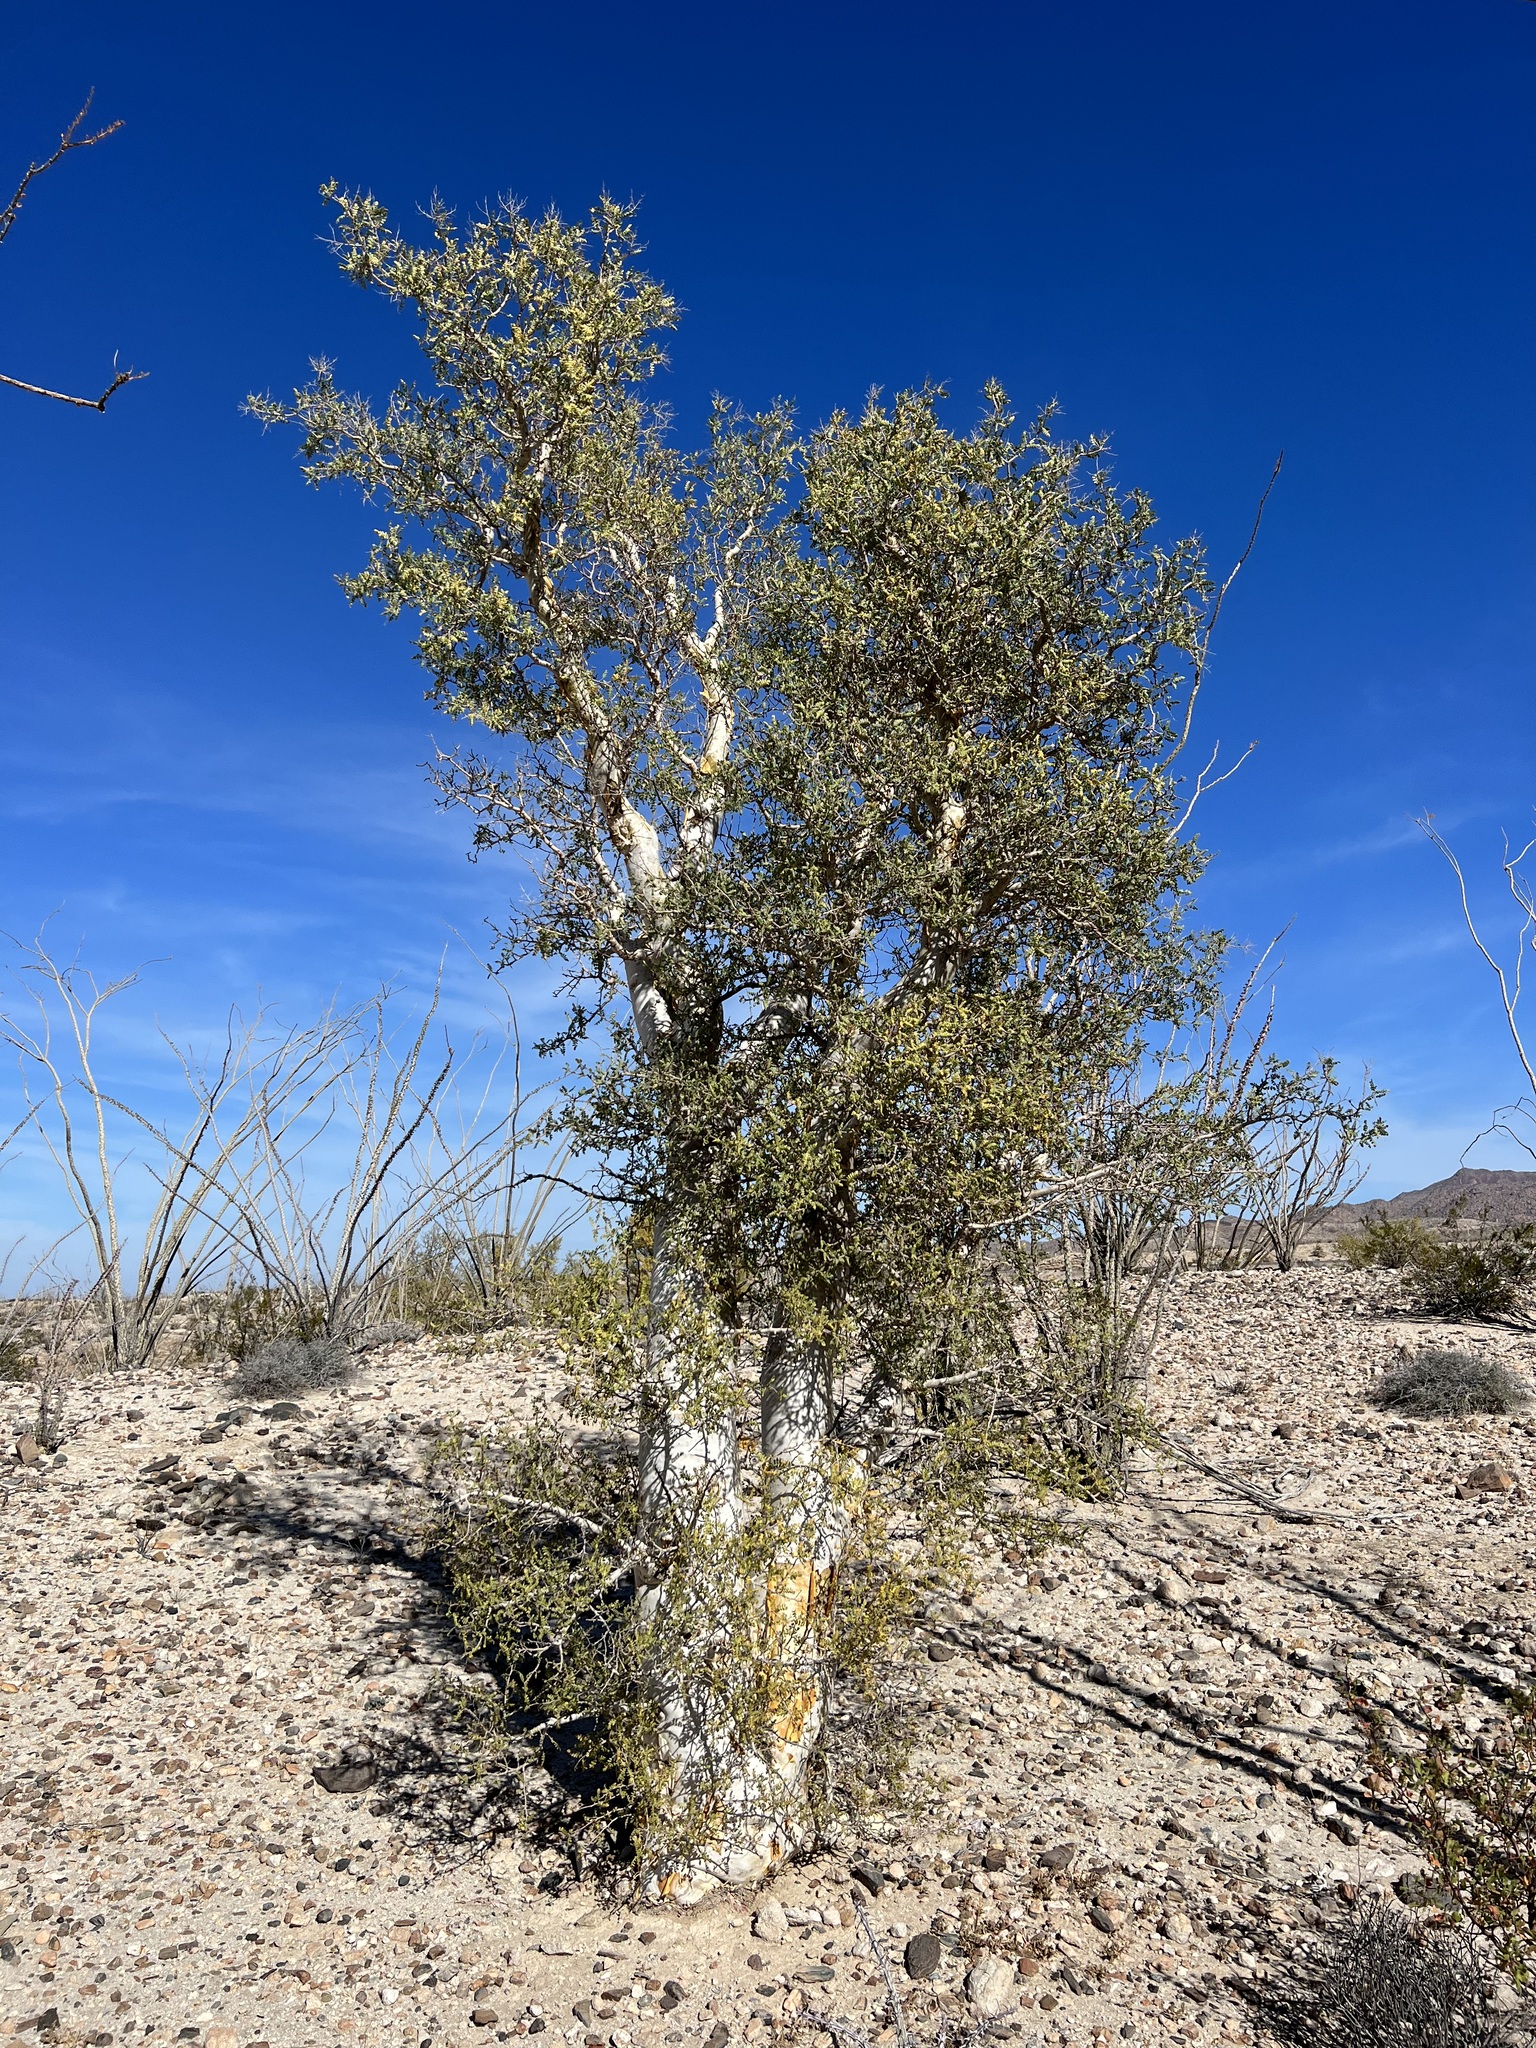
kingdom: Plantae
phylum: Tracheophyta
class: Magnoliopsida
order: Sapindales
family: Anacardiaceae
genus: Pachycormus
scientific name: Pachycormus discolor
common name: Succulent elephant trees
